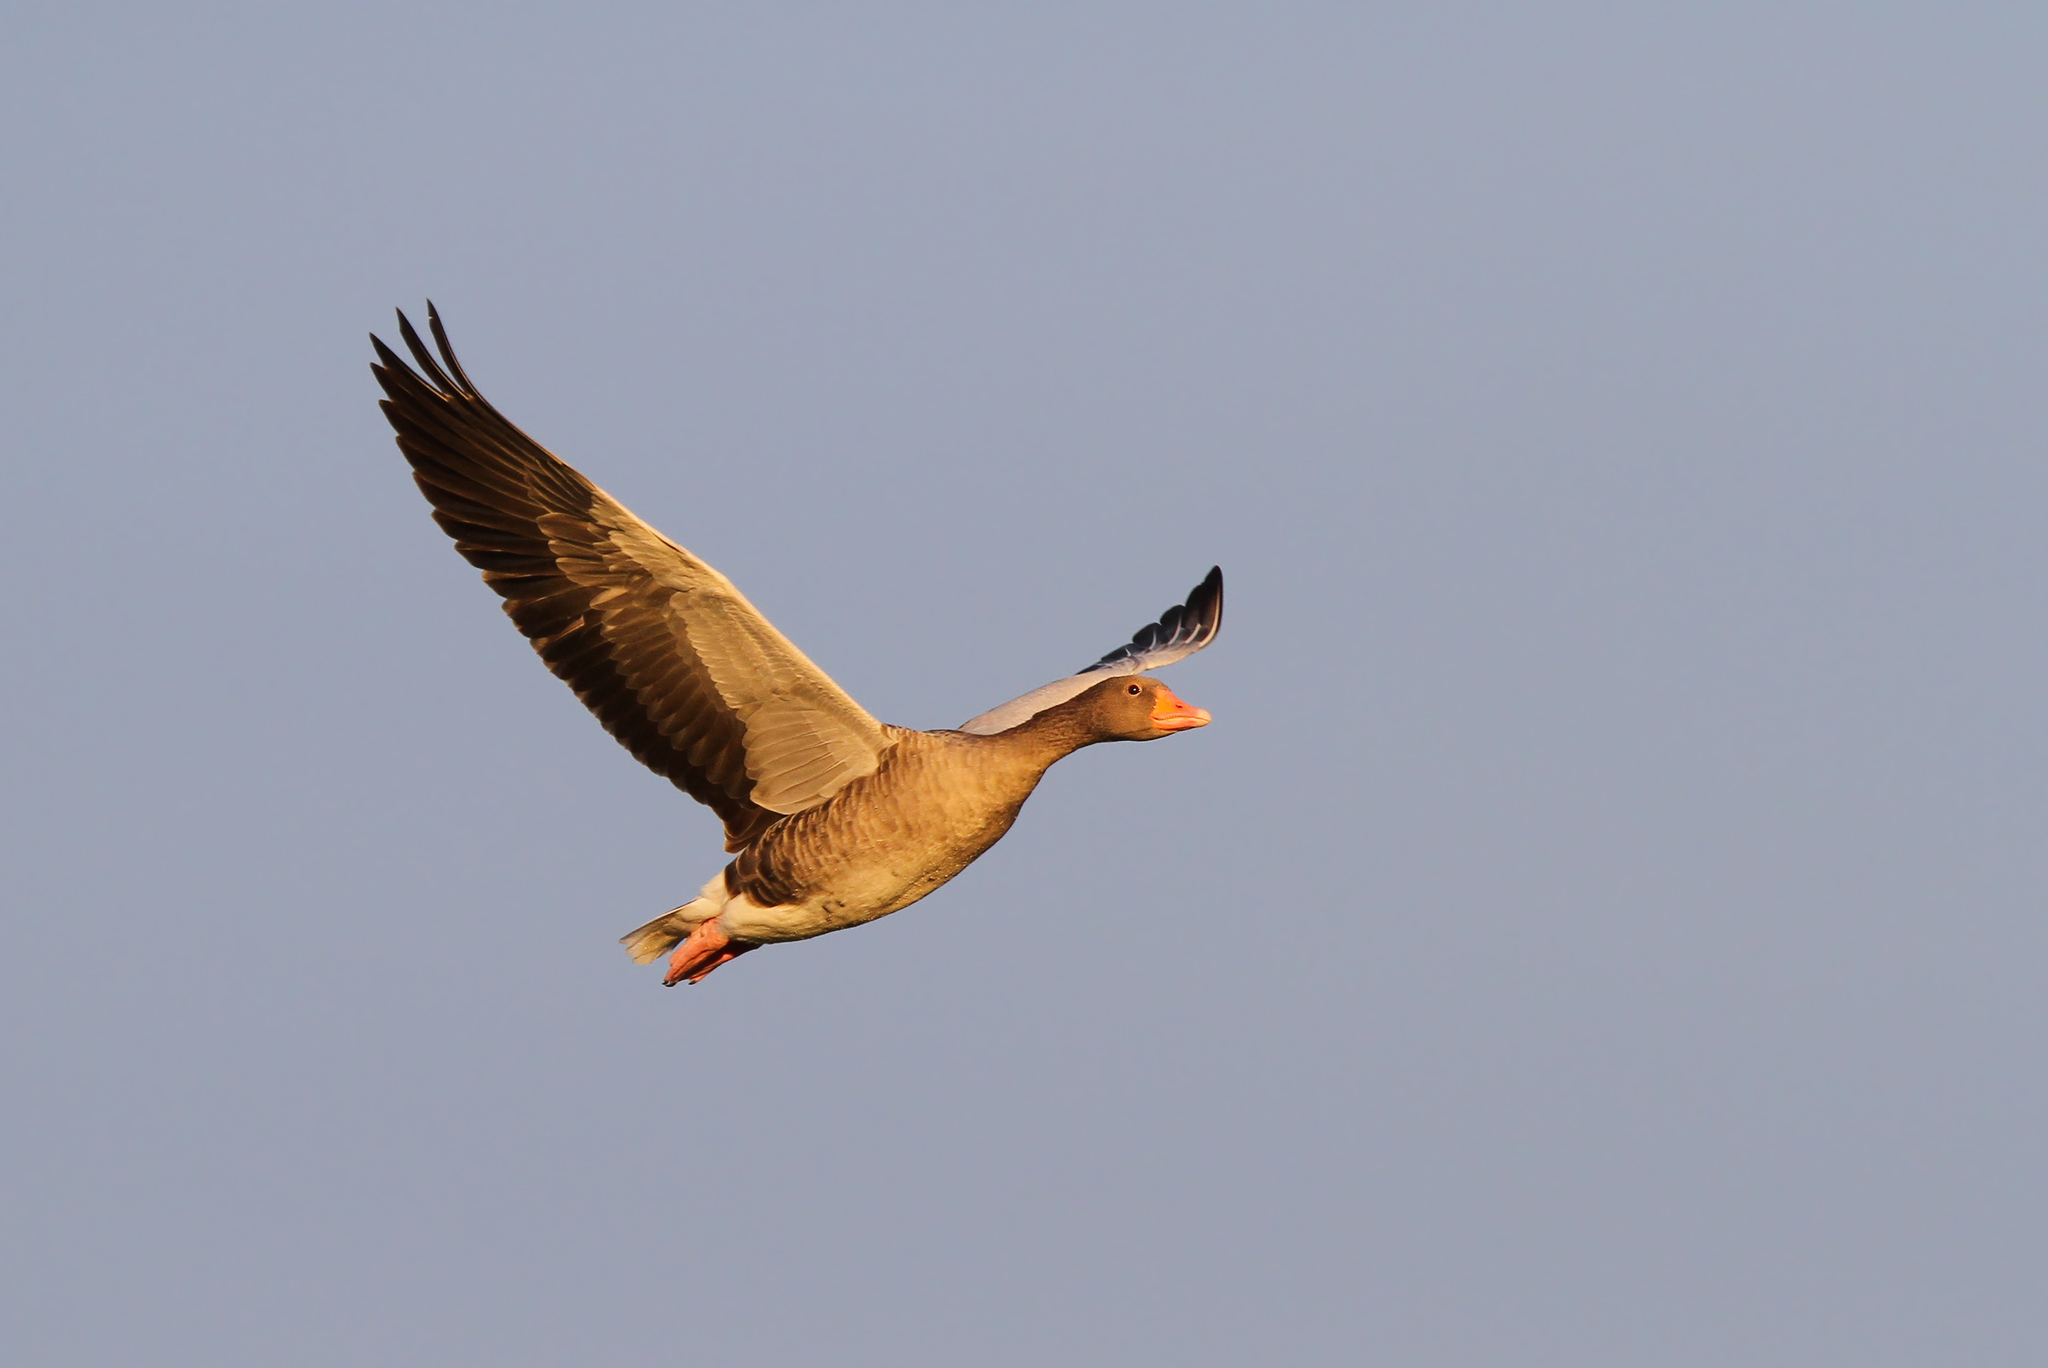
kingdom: Animalia
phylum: Chordata
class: Aves
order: Anseriformes
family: Anatidae
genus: Anser
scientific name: Anser anser
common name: Greylag goose
